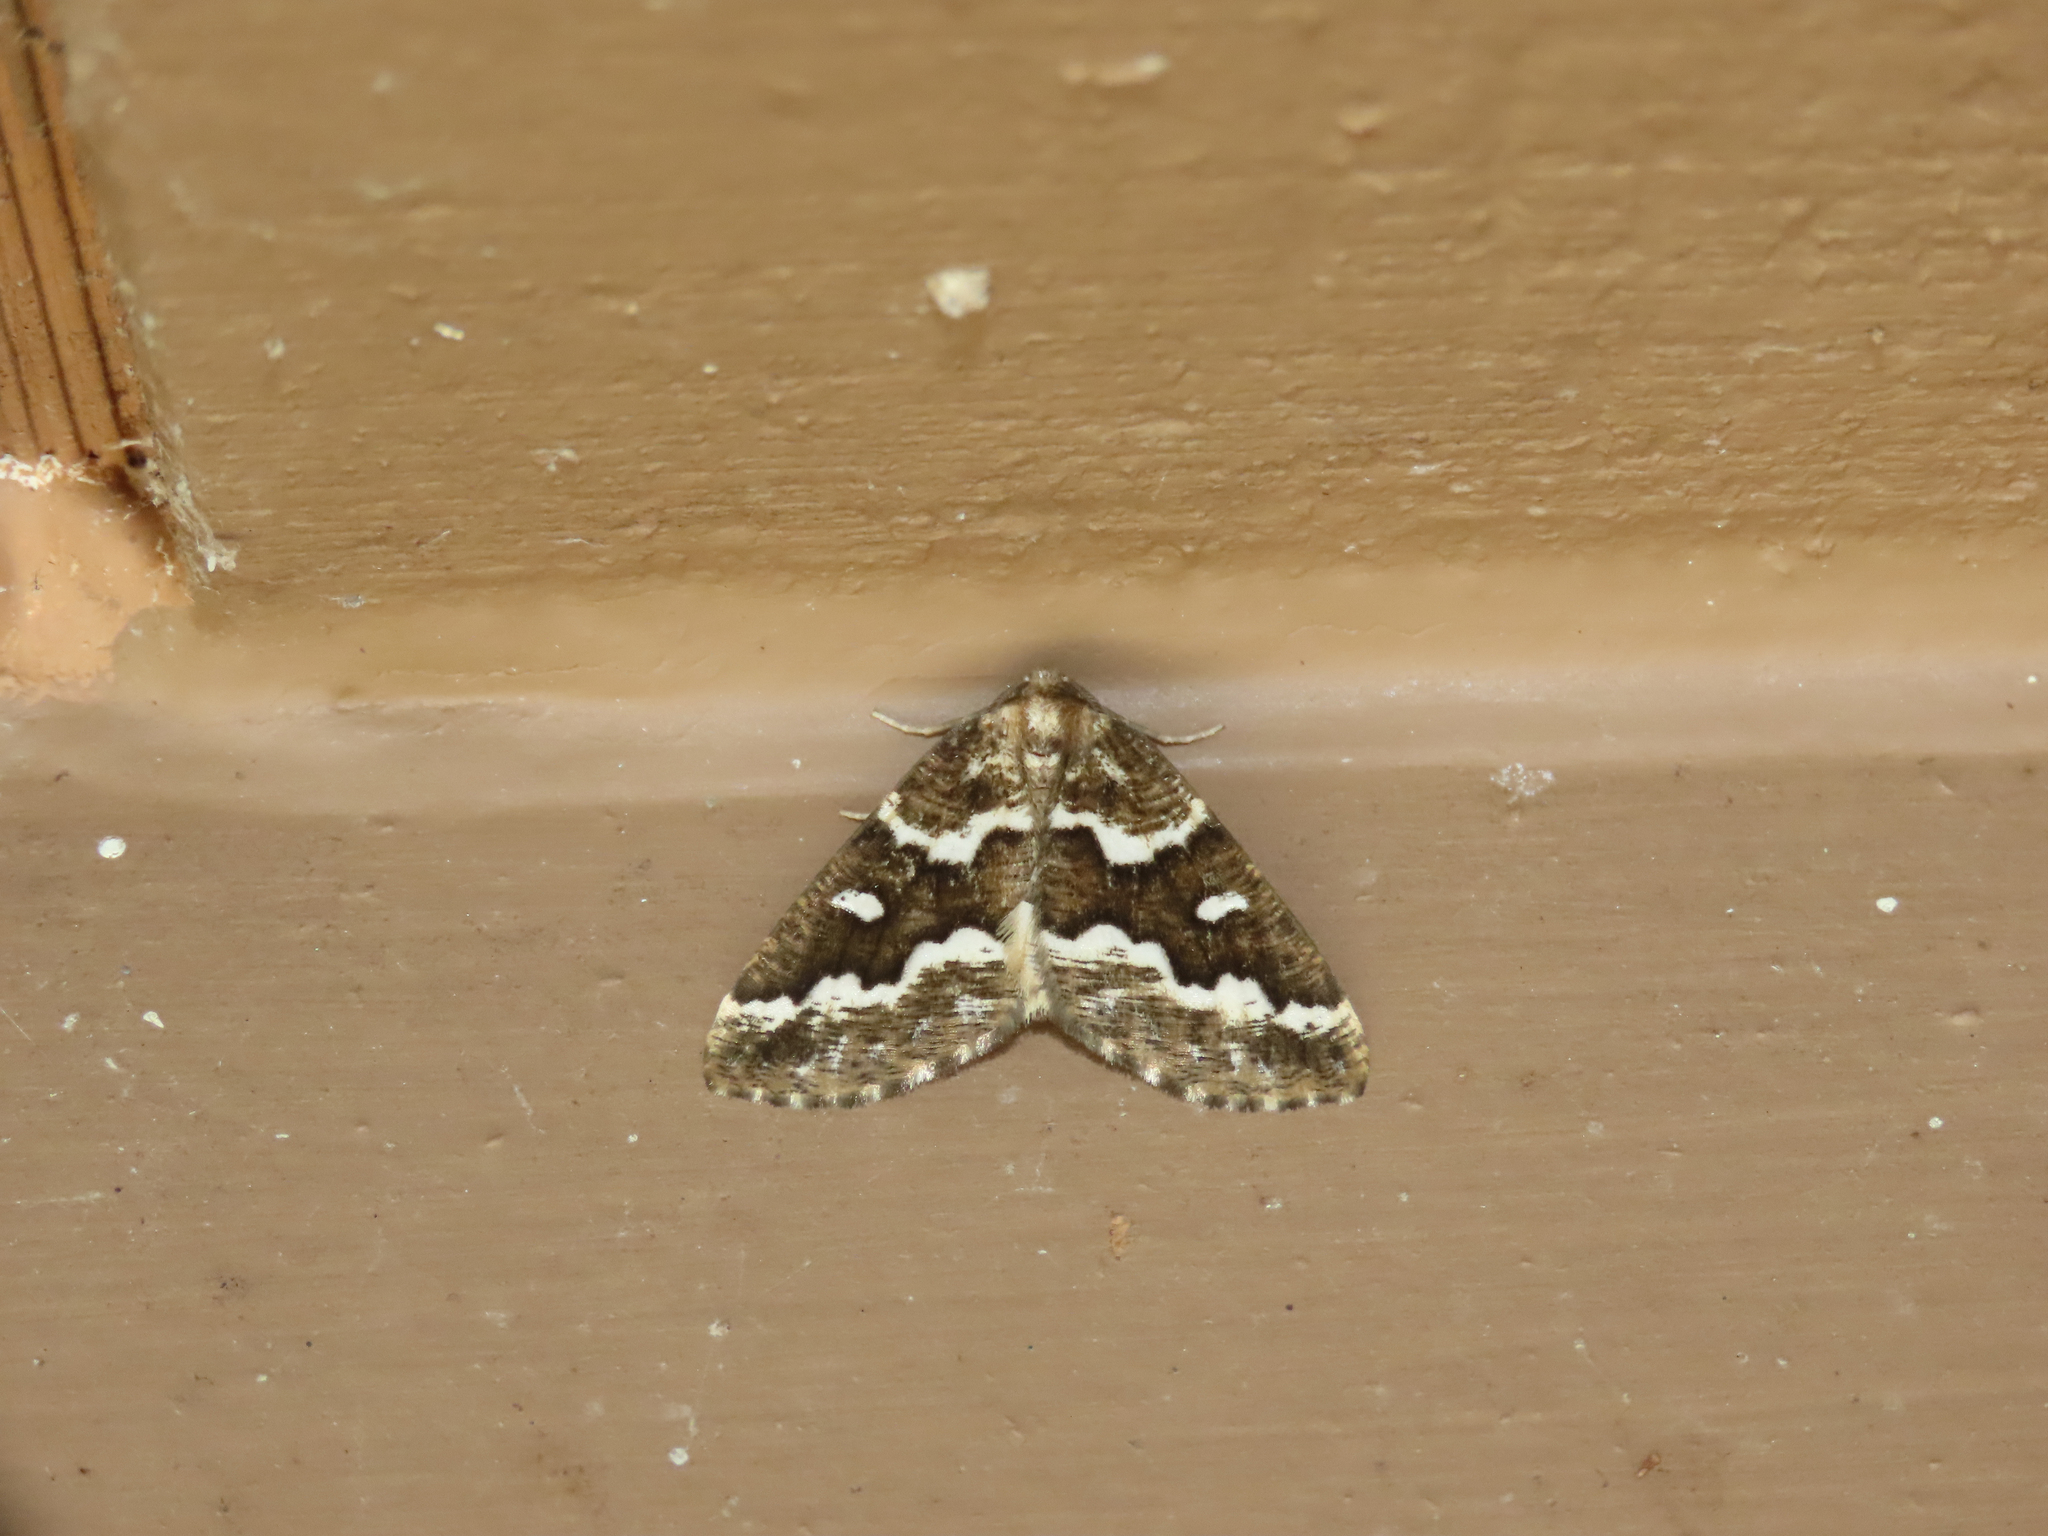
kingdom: Animalia
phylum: Arthropoda
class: Insecta
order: Lepidoptera
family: Geometridae
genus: Caripeta
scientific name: Caripeta divisata
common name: Gray spruce looper
